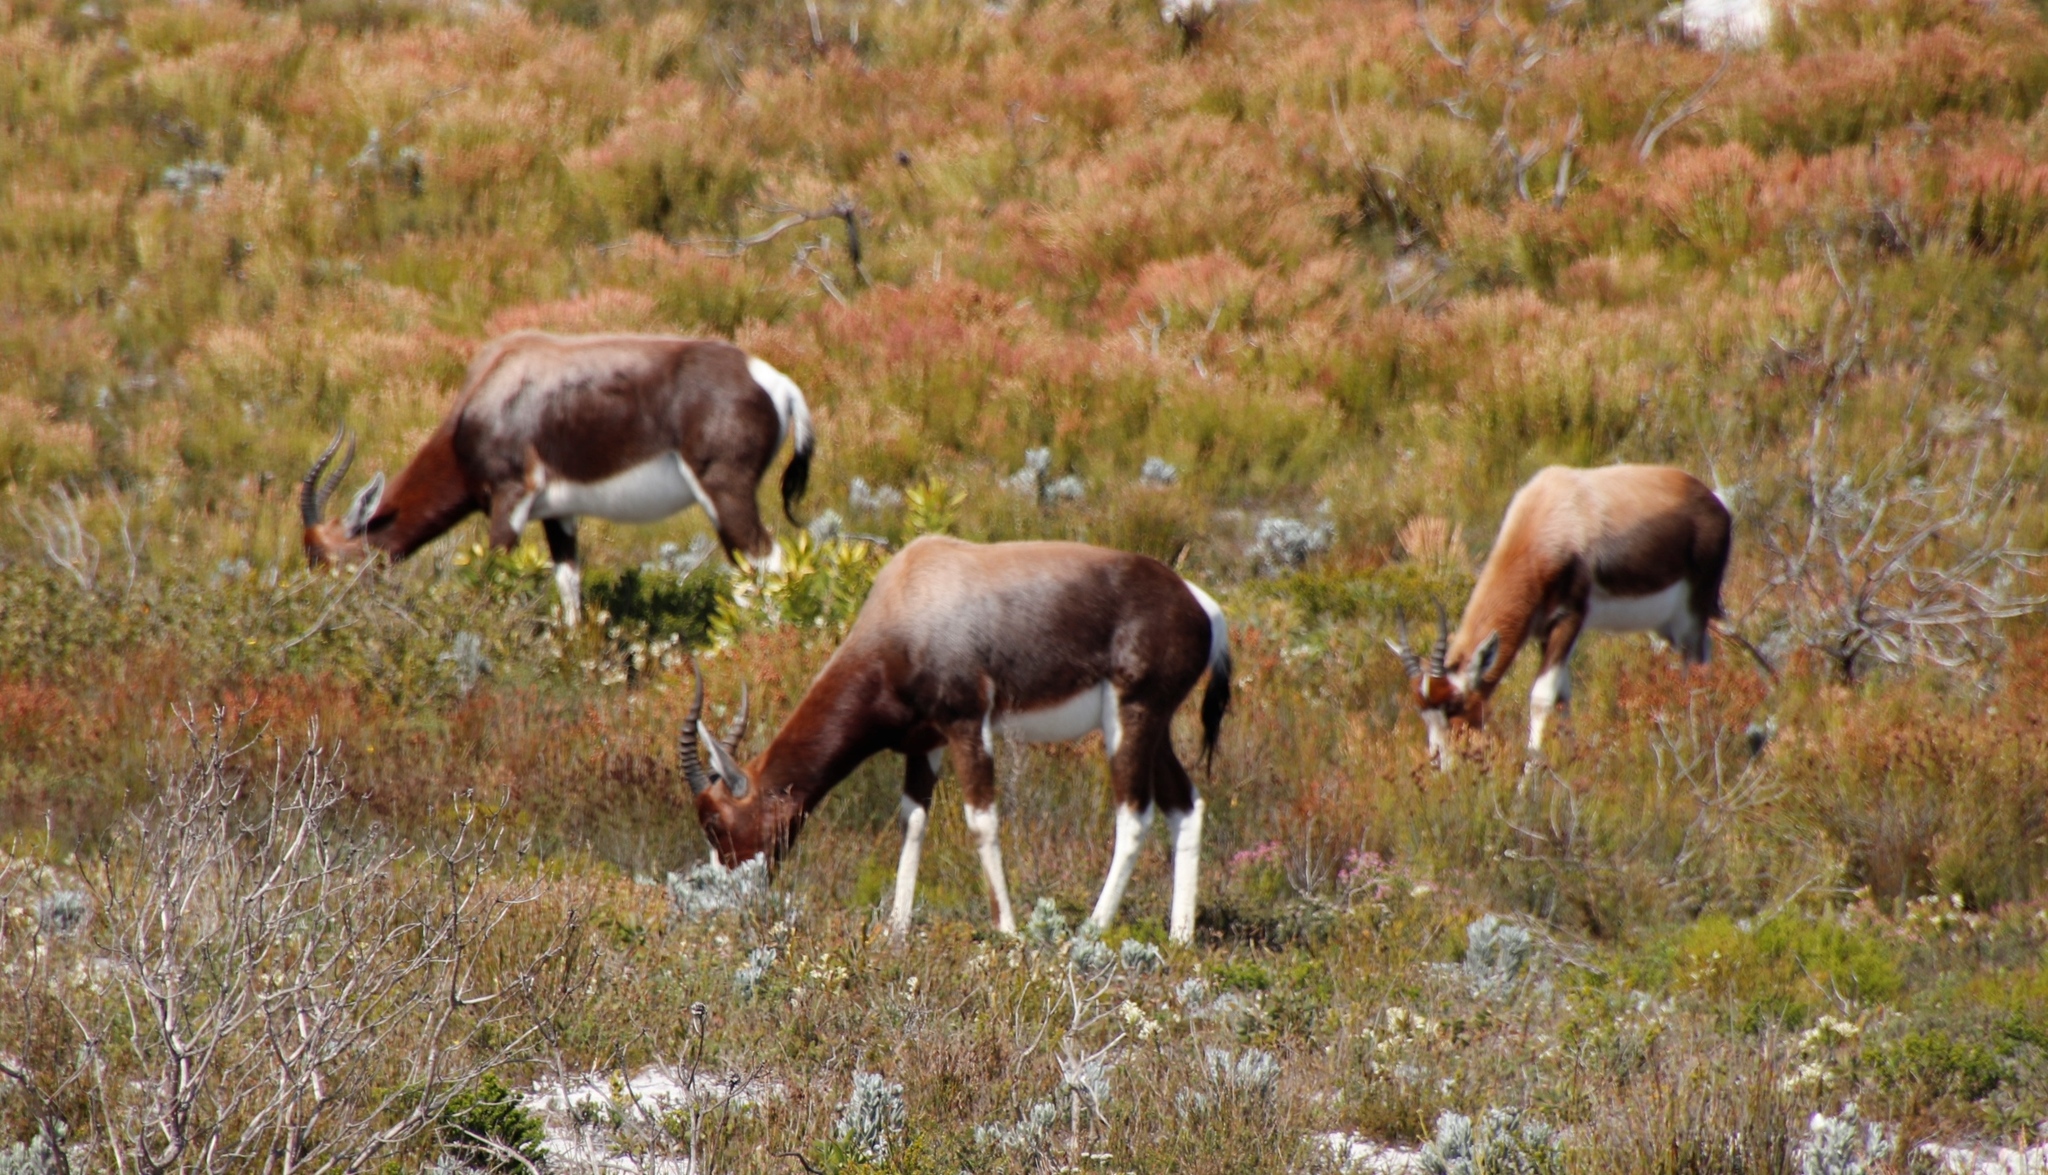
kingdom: Animalia
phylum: Chordata
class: Mammalia
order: Artiodactyla
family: Bovidae
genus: Damaliscus
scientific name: Damaliscus pygargus
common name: Bontebok
